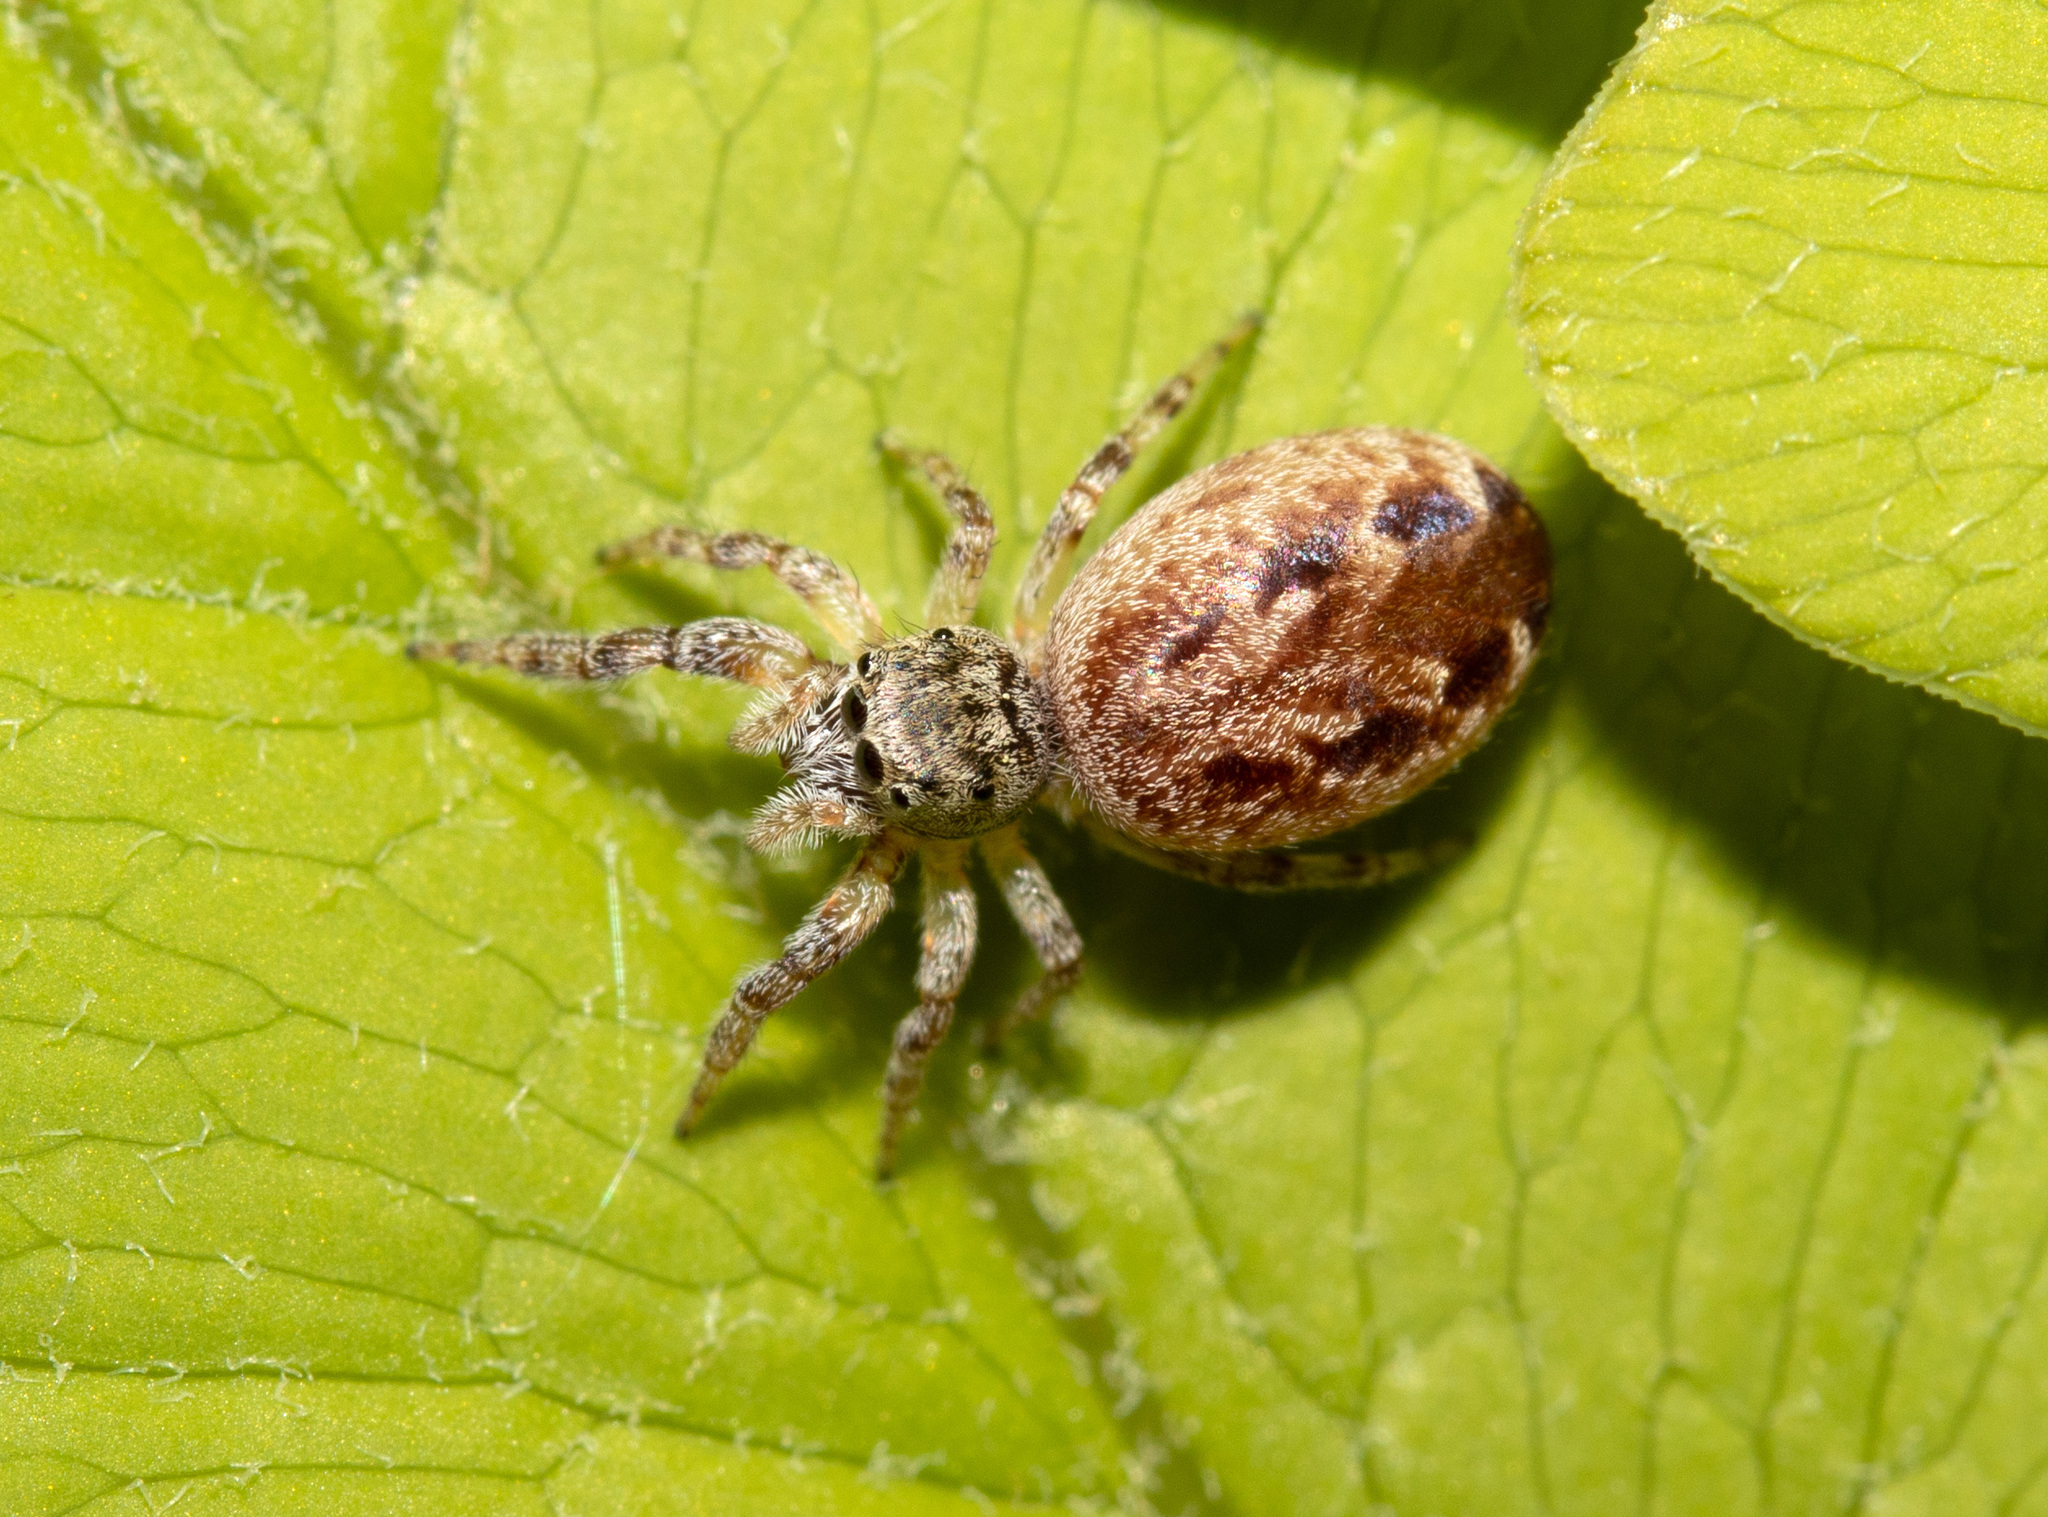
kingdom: Animalia
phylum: Arthropoda
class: Arachnida
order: Araneae
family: Salticidae
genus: Pelegrina
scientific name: Pelegrina proterva
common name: Common white-cheeked jumping spider
